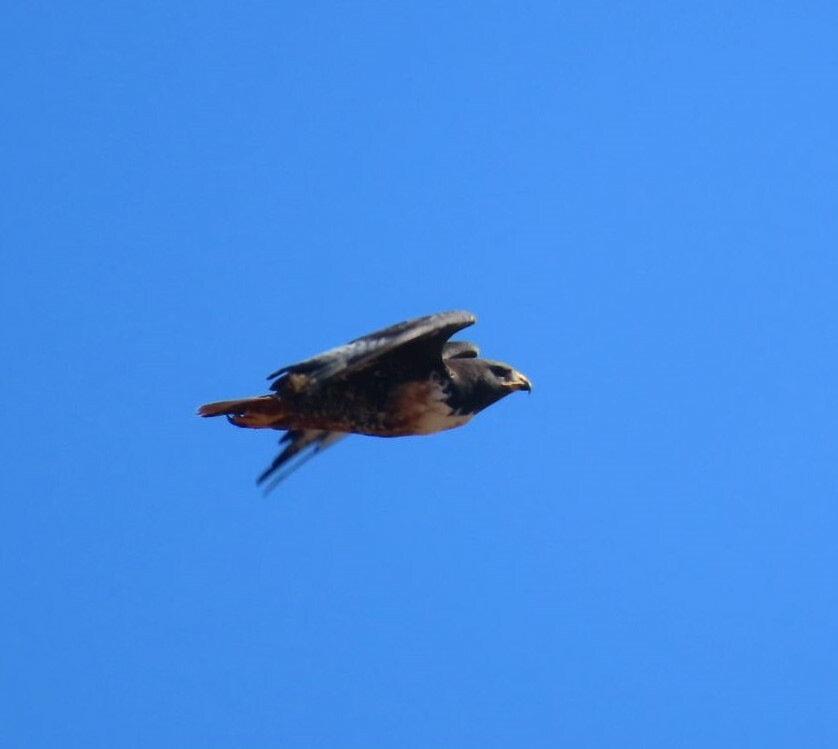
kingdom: Animalia
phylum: Chordata
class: Aves
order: Accipitriformes
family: Accipitridae
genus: Buteo
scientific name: Buteo rufofuscus
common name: Jackal buzzard
